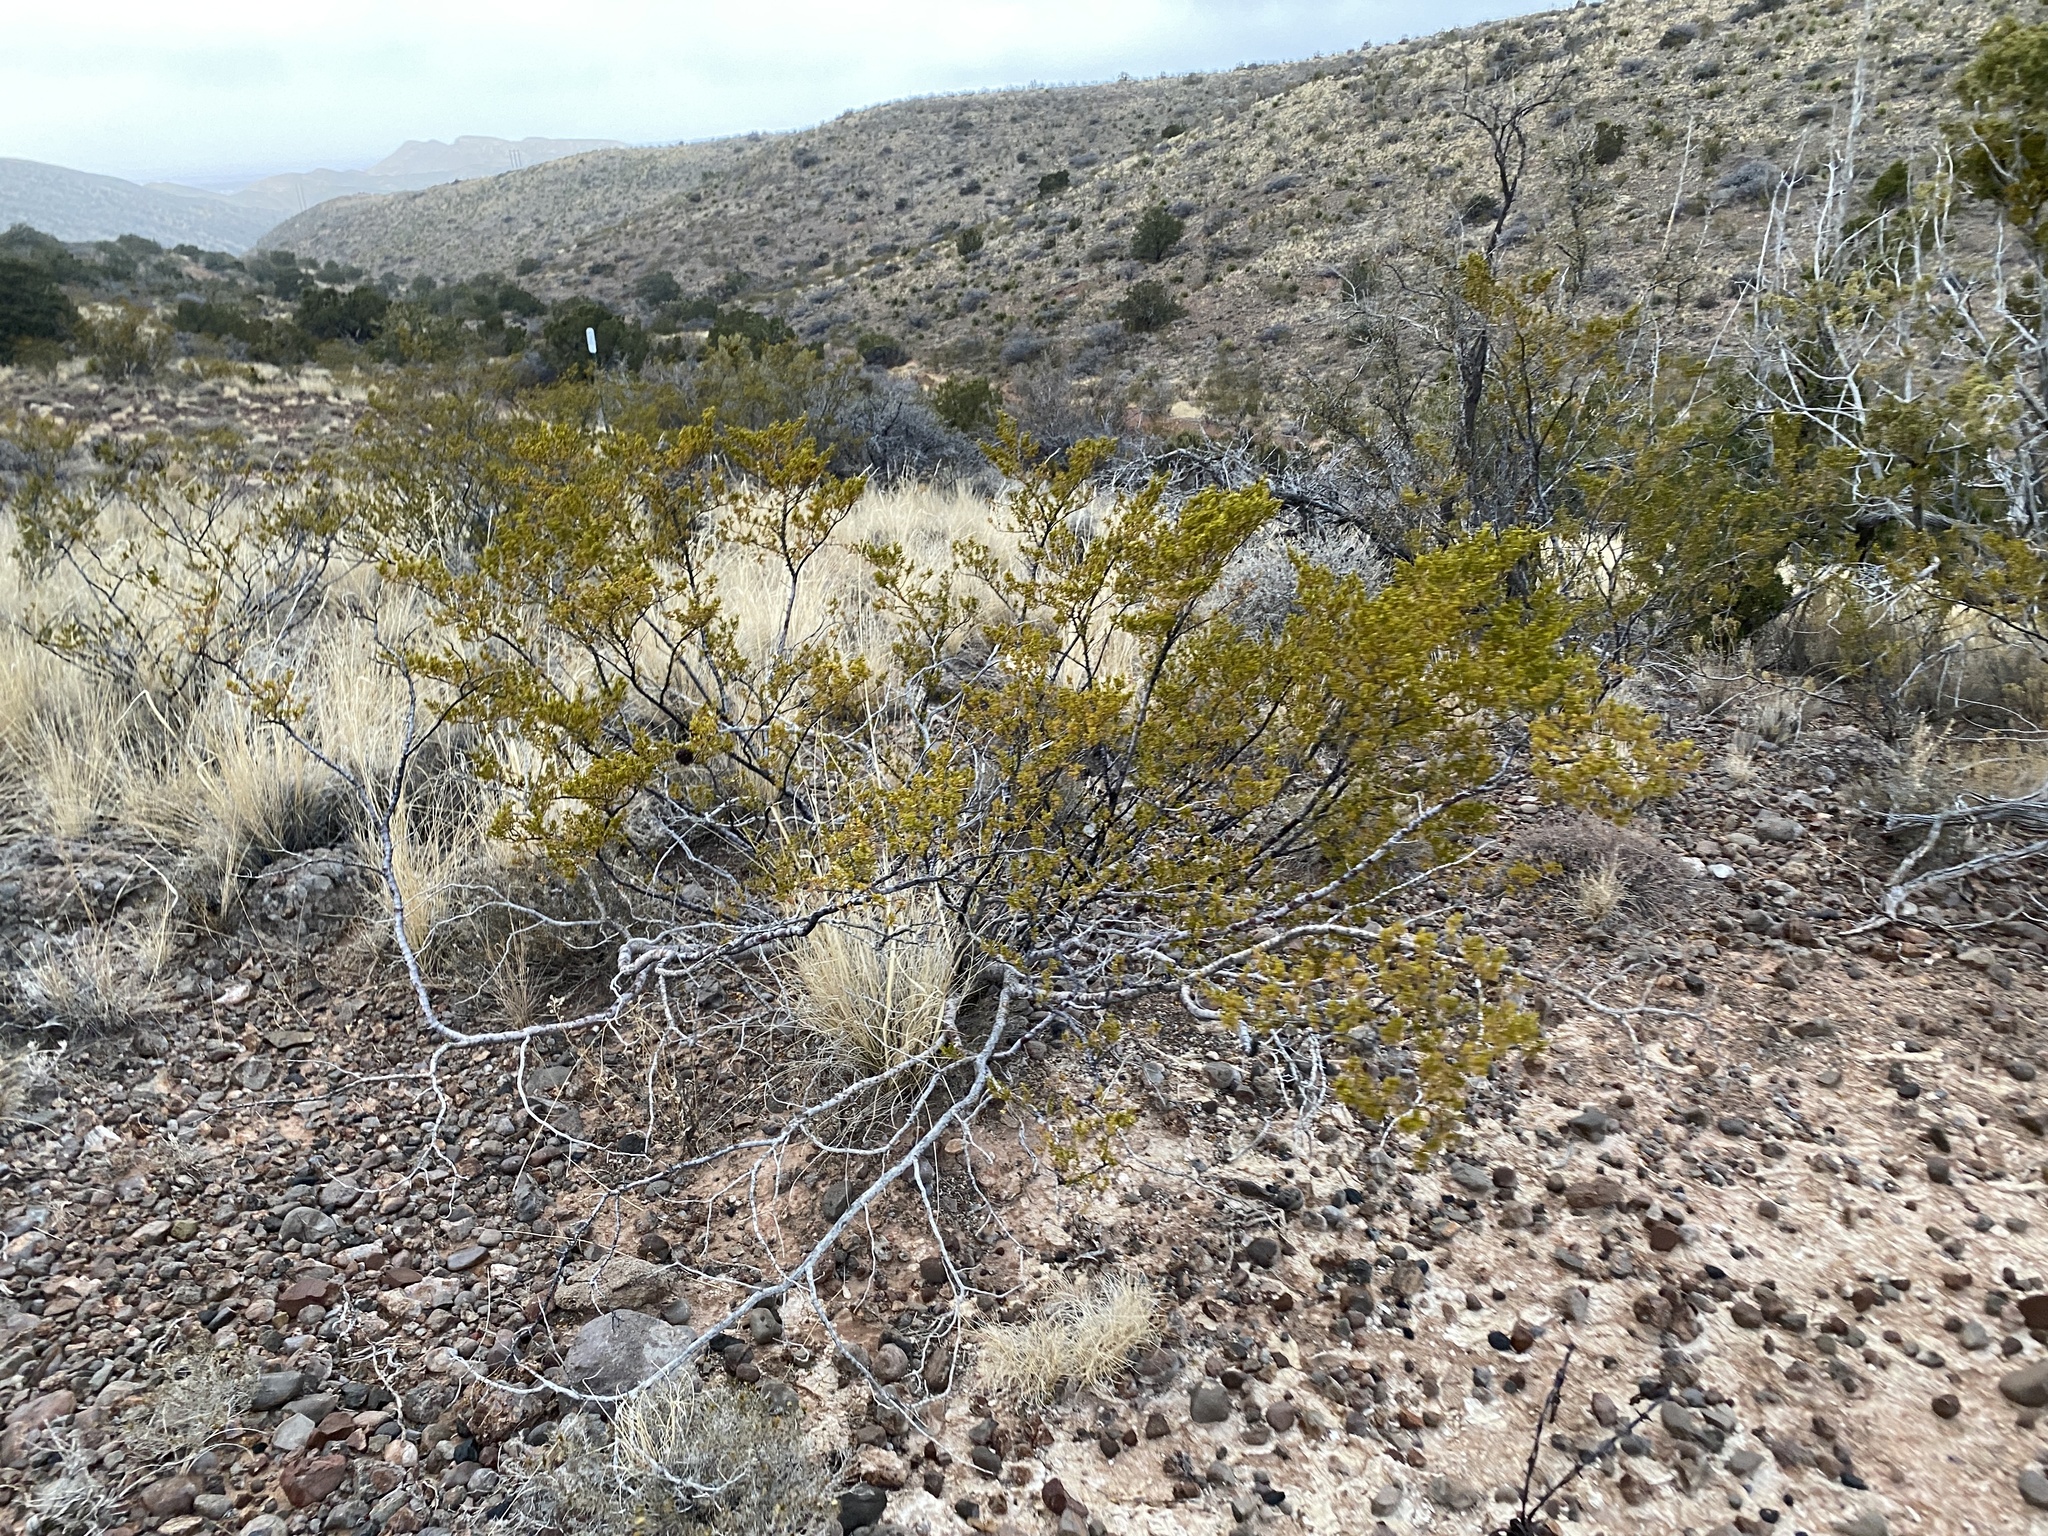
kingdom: Plantae
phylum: Tracheophyta
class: Magnoliopsida
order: Zygophyllales
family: Zygophyllaceae
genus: Larrea
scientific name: Larrea tridentata
